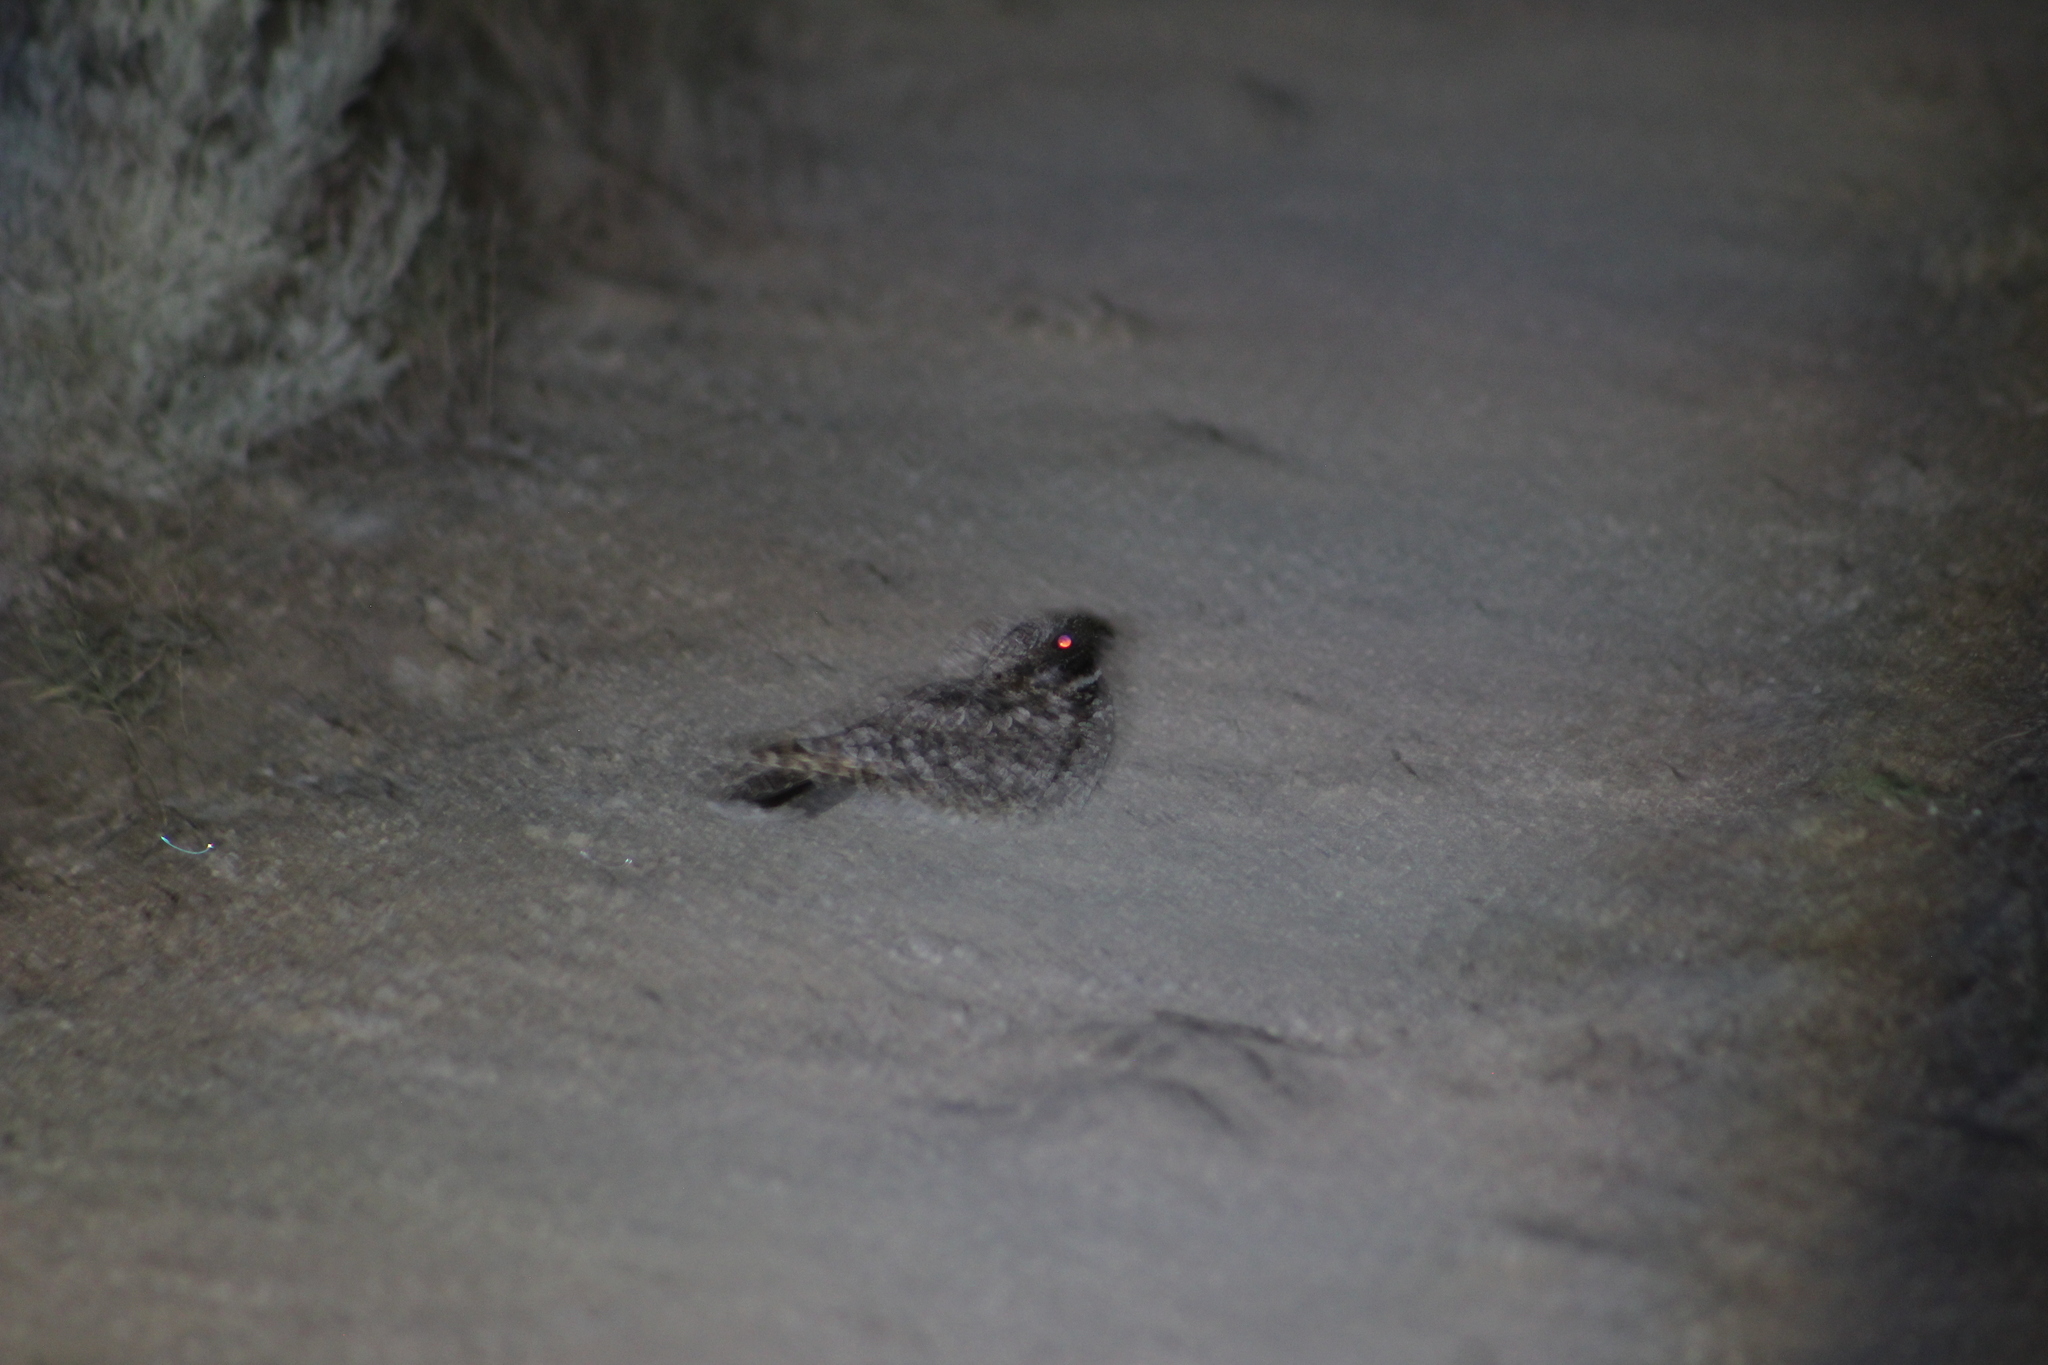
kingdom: Animalia
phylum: Chordata
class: Aves
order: Caprimulgiformes
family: Caprimulgidae
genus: Phalaenoptilus
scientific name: Phalaenoptilus nuttallii
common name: Common poorwill
